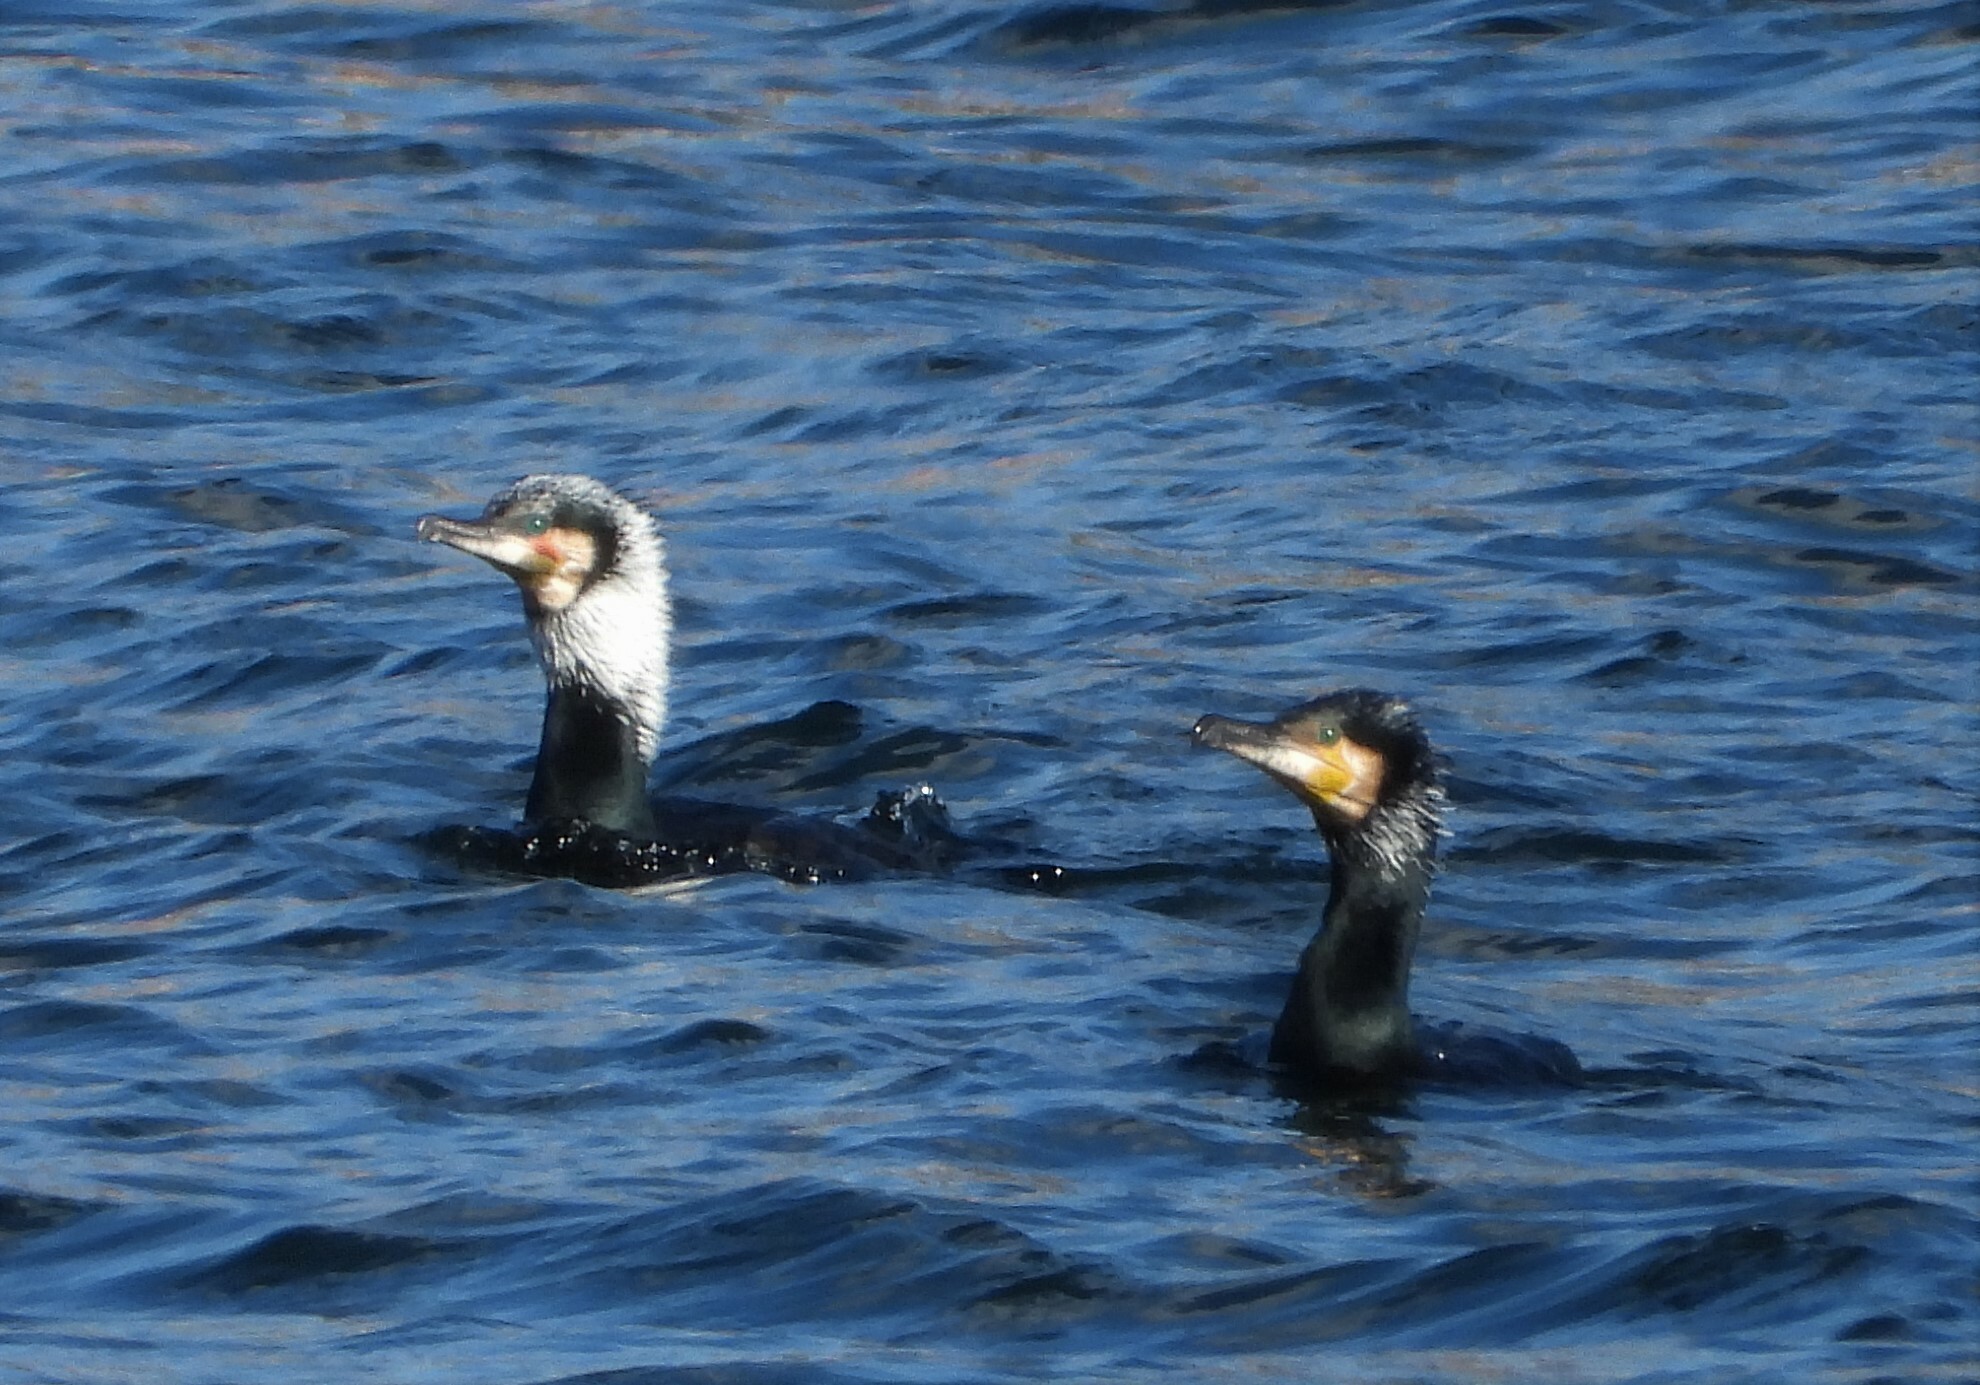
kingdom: Animalia
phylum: Chordata
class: Aves
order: Suliformes
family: Phalacrocoracidae
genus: Phalacrocorax
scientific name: Phalacrocorax carbo
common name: Great cormorant
